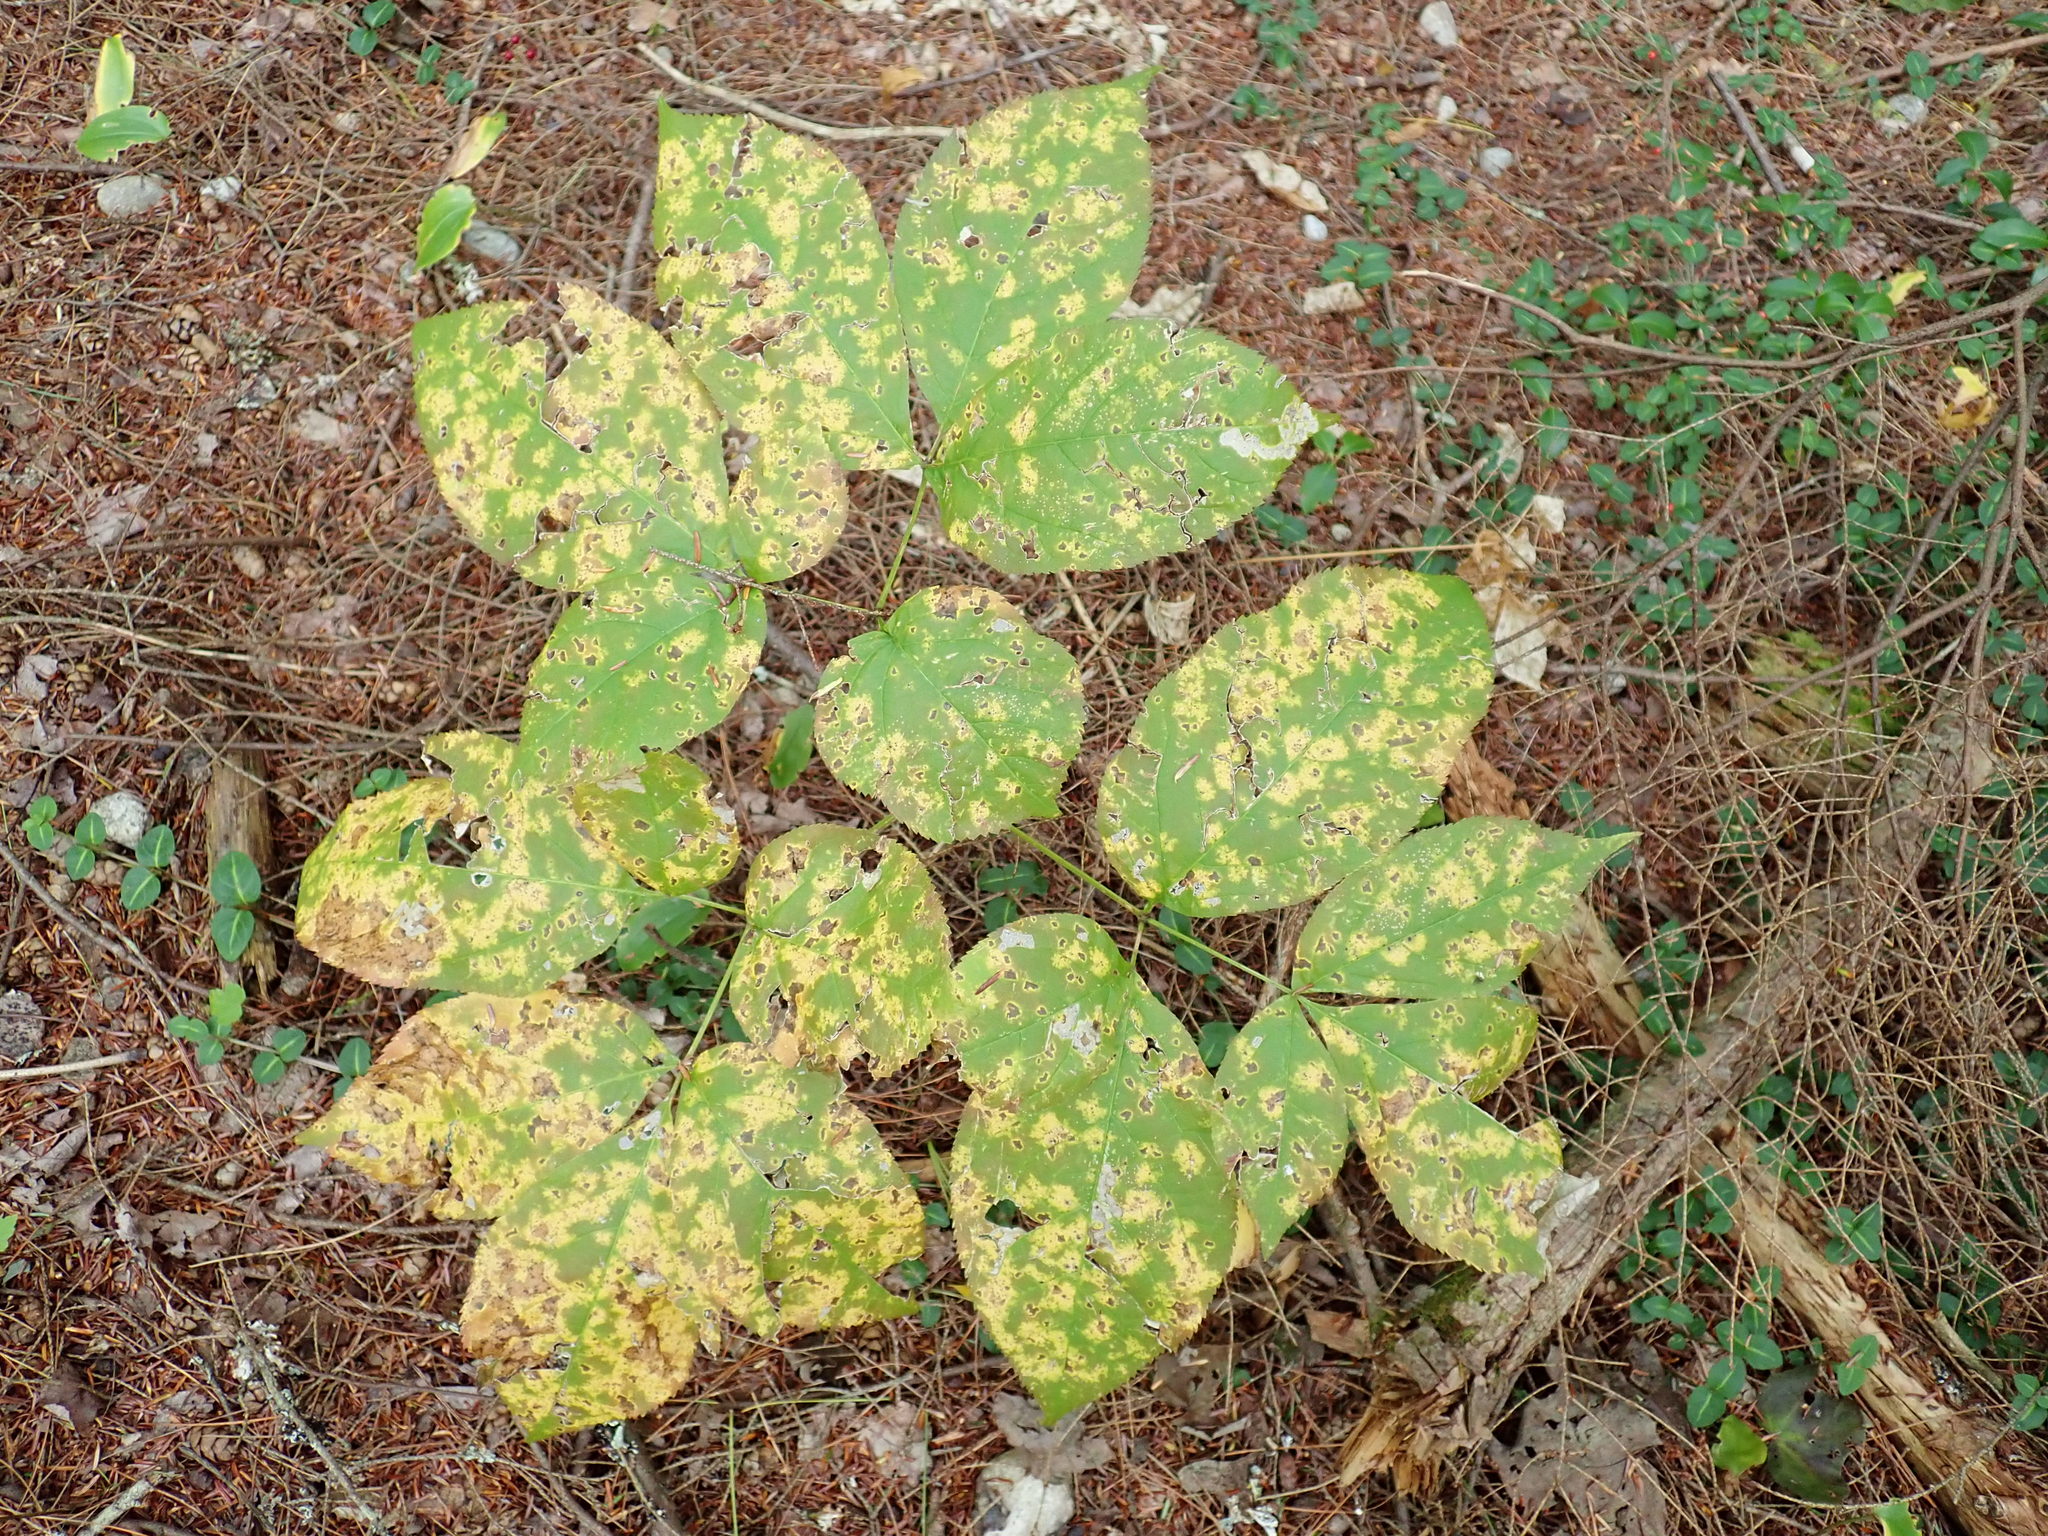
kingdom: Plantae
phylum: Tracheophyta
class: Magnoliopsida
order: Apiales
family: Araliaceae
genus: Aralia
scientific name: Aralia nudicaulis
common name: Wild sarsaparilla
